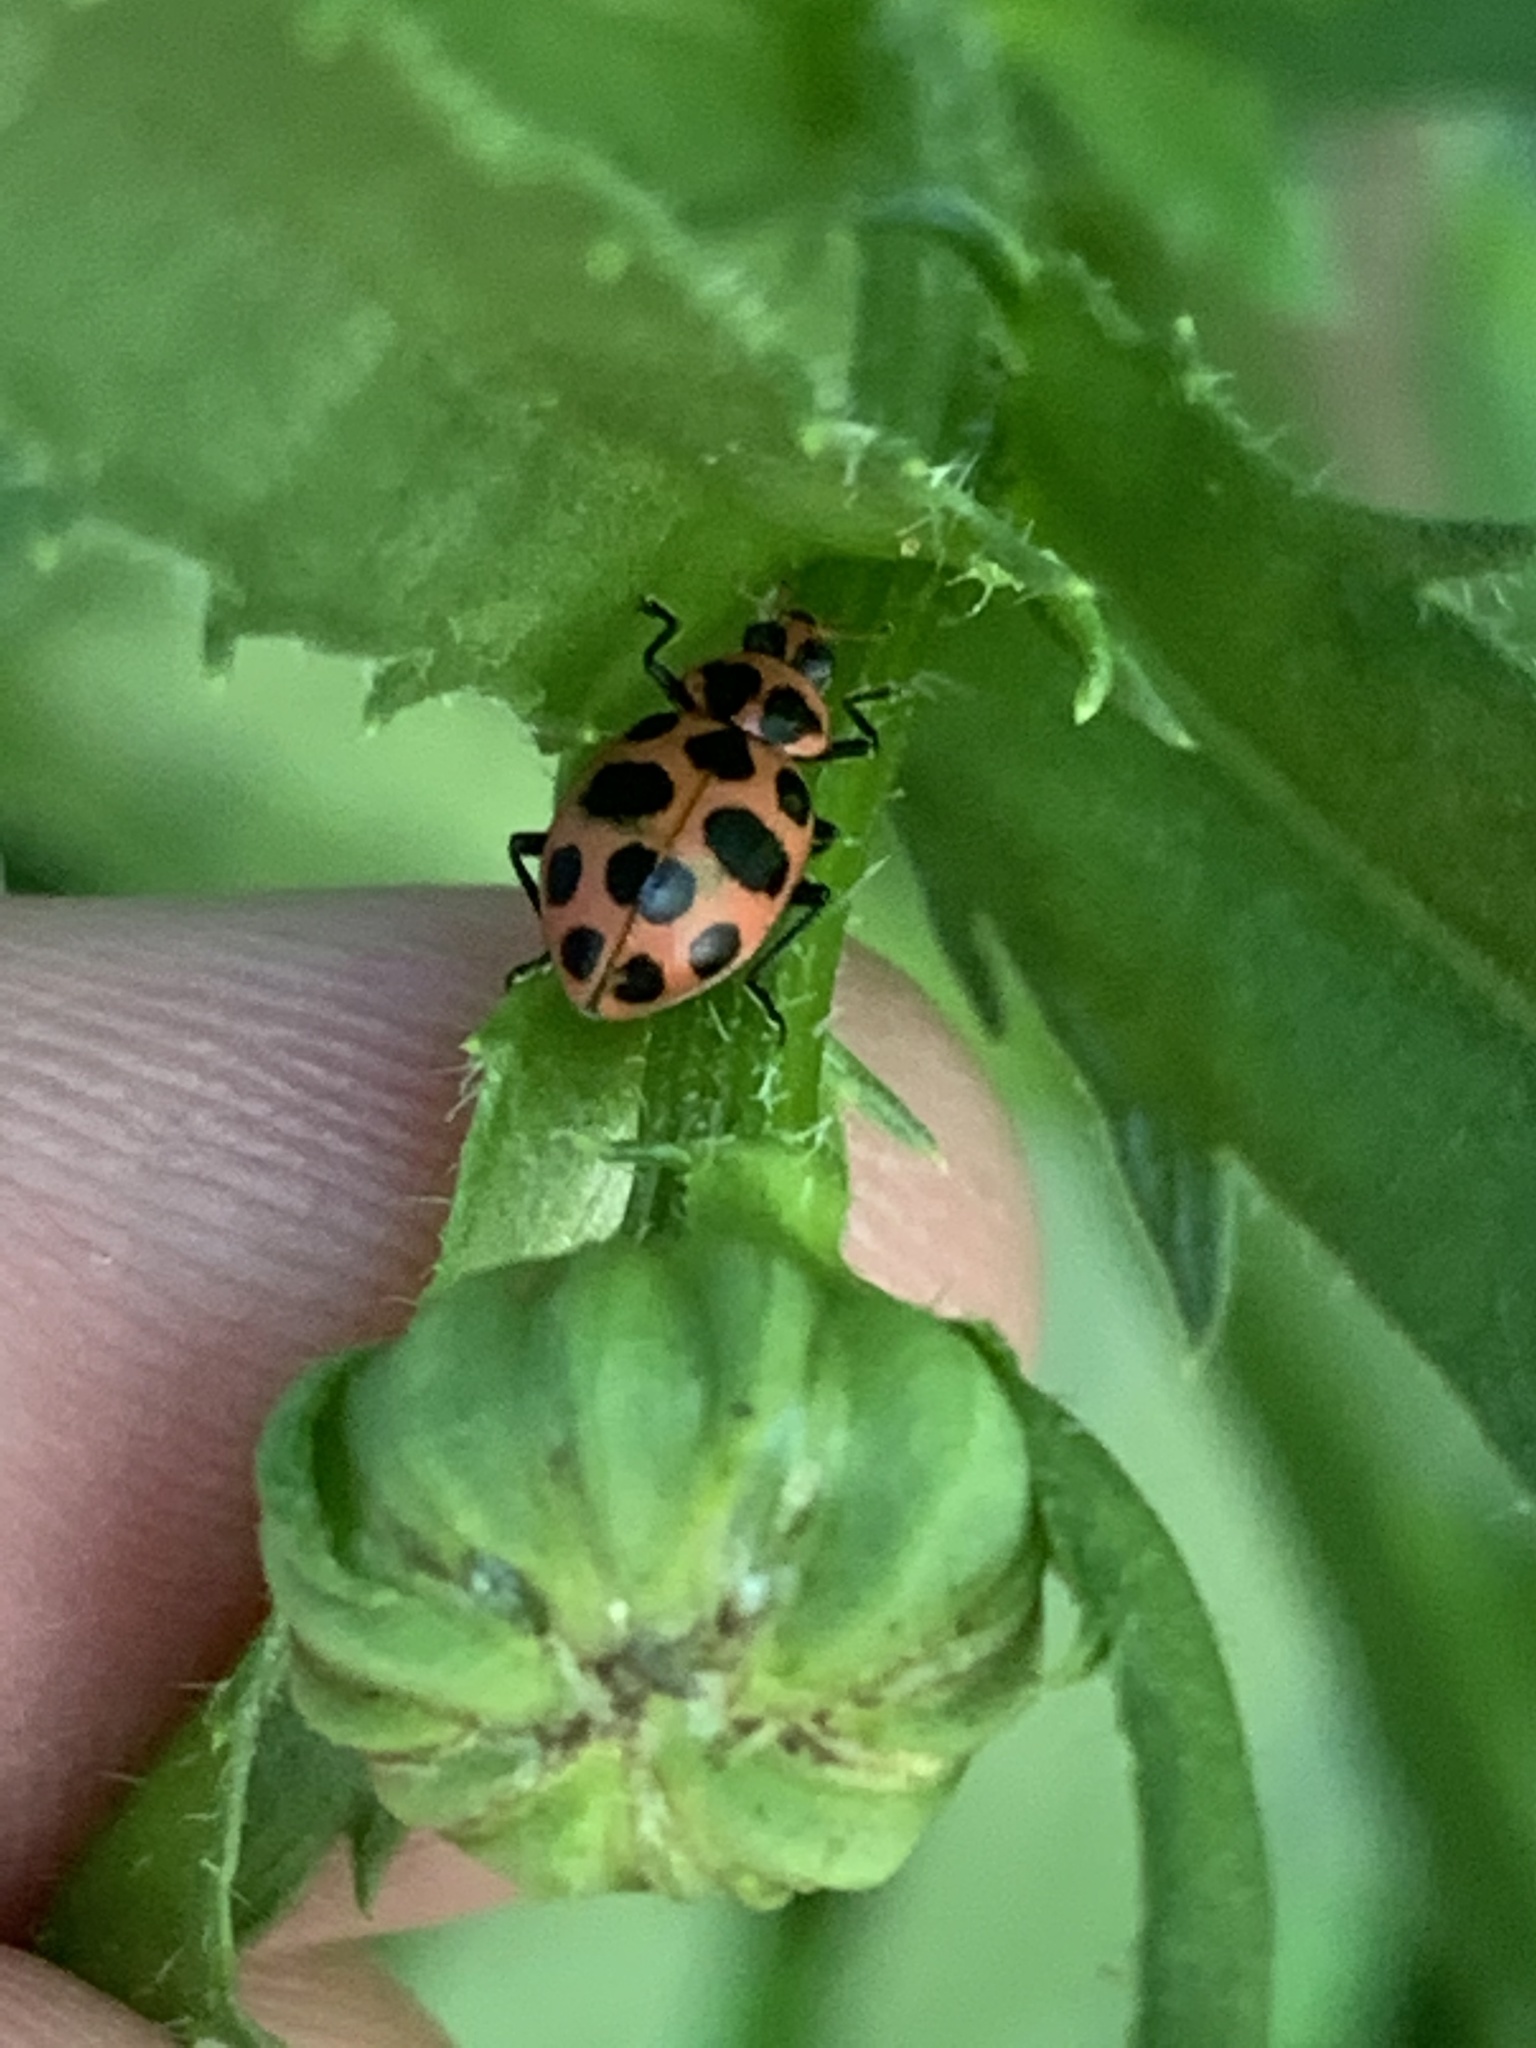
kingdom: Animalia
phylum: Arthropoda
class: Insecta
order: Coleoptera
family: Coccinellidae
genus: Coleomegilla
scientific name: Coleomegilla maculata
